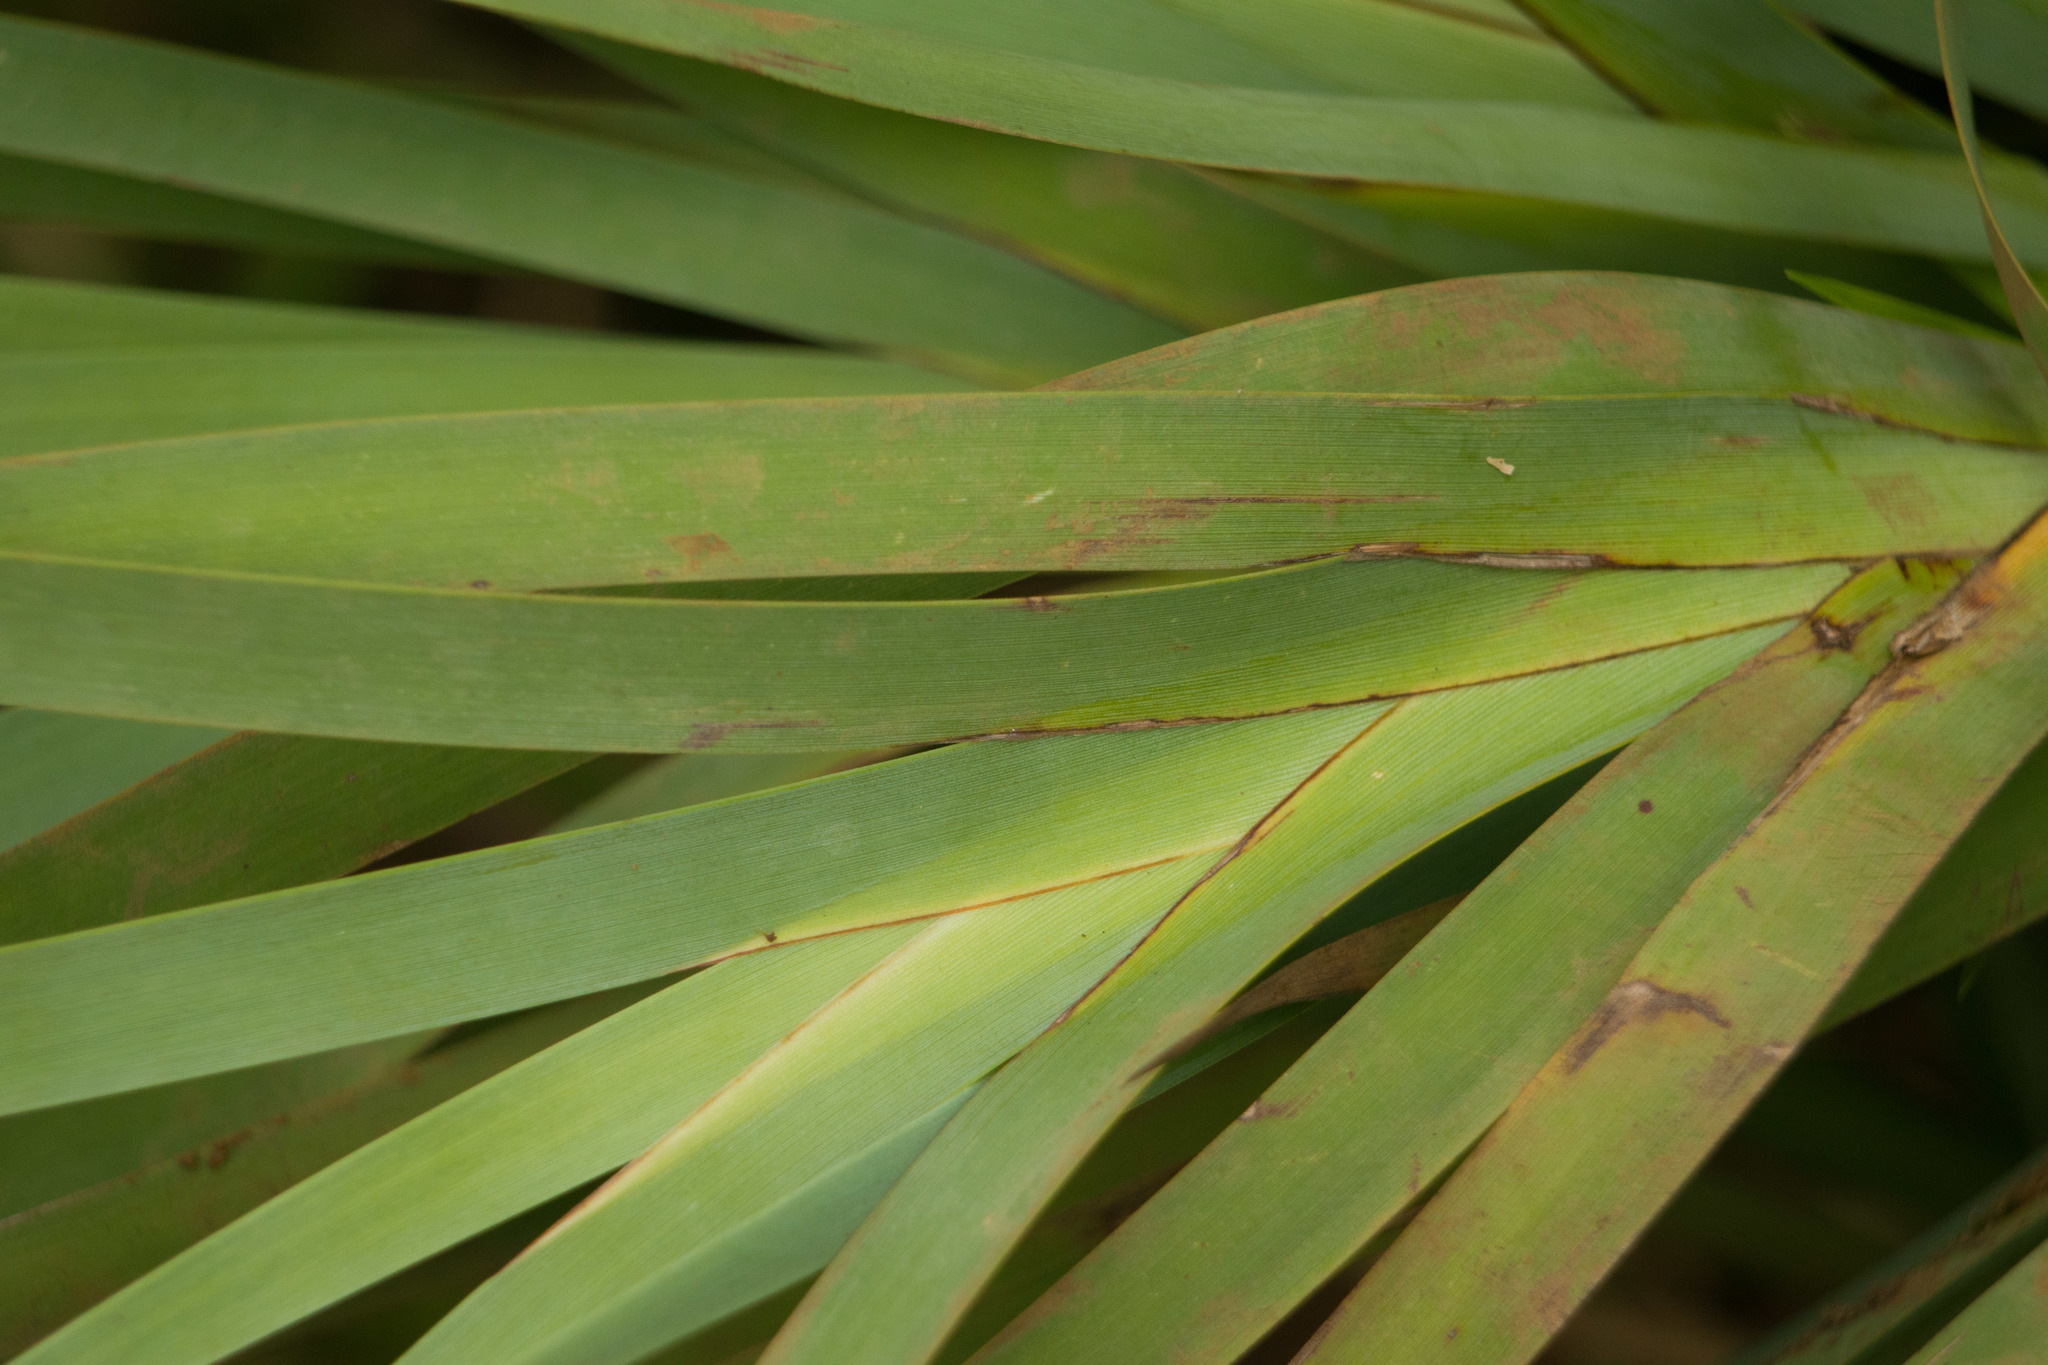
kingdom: Plantae
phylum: Tracheophyta
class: Liliopsida
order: Poales
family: Cyperaceae
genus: Machaerina
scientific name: Machaerina mariscoides
